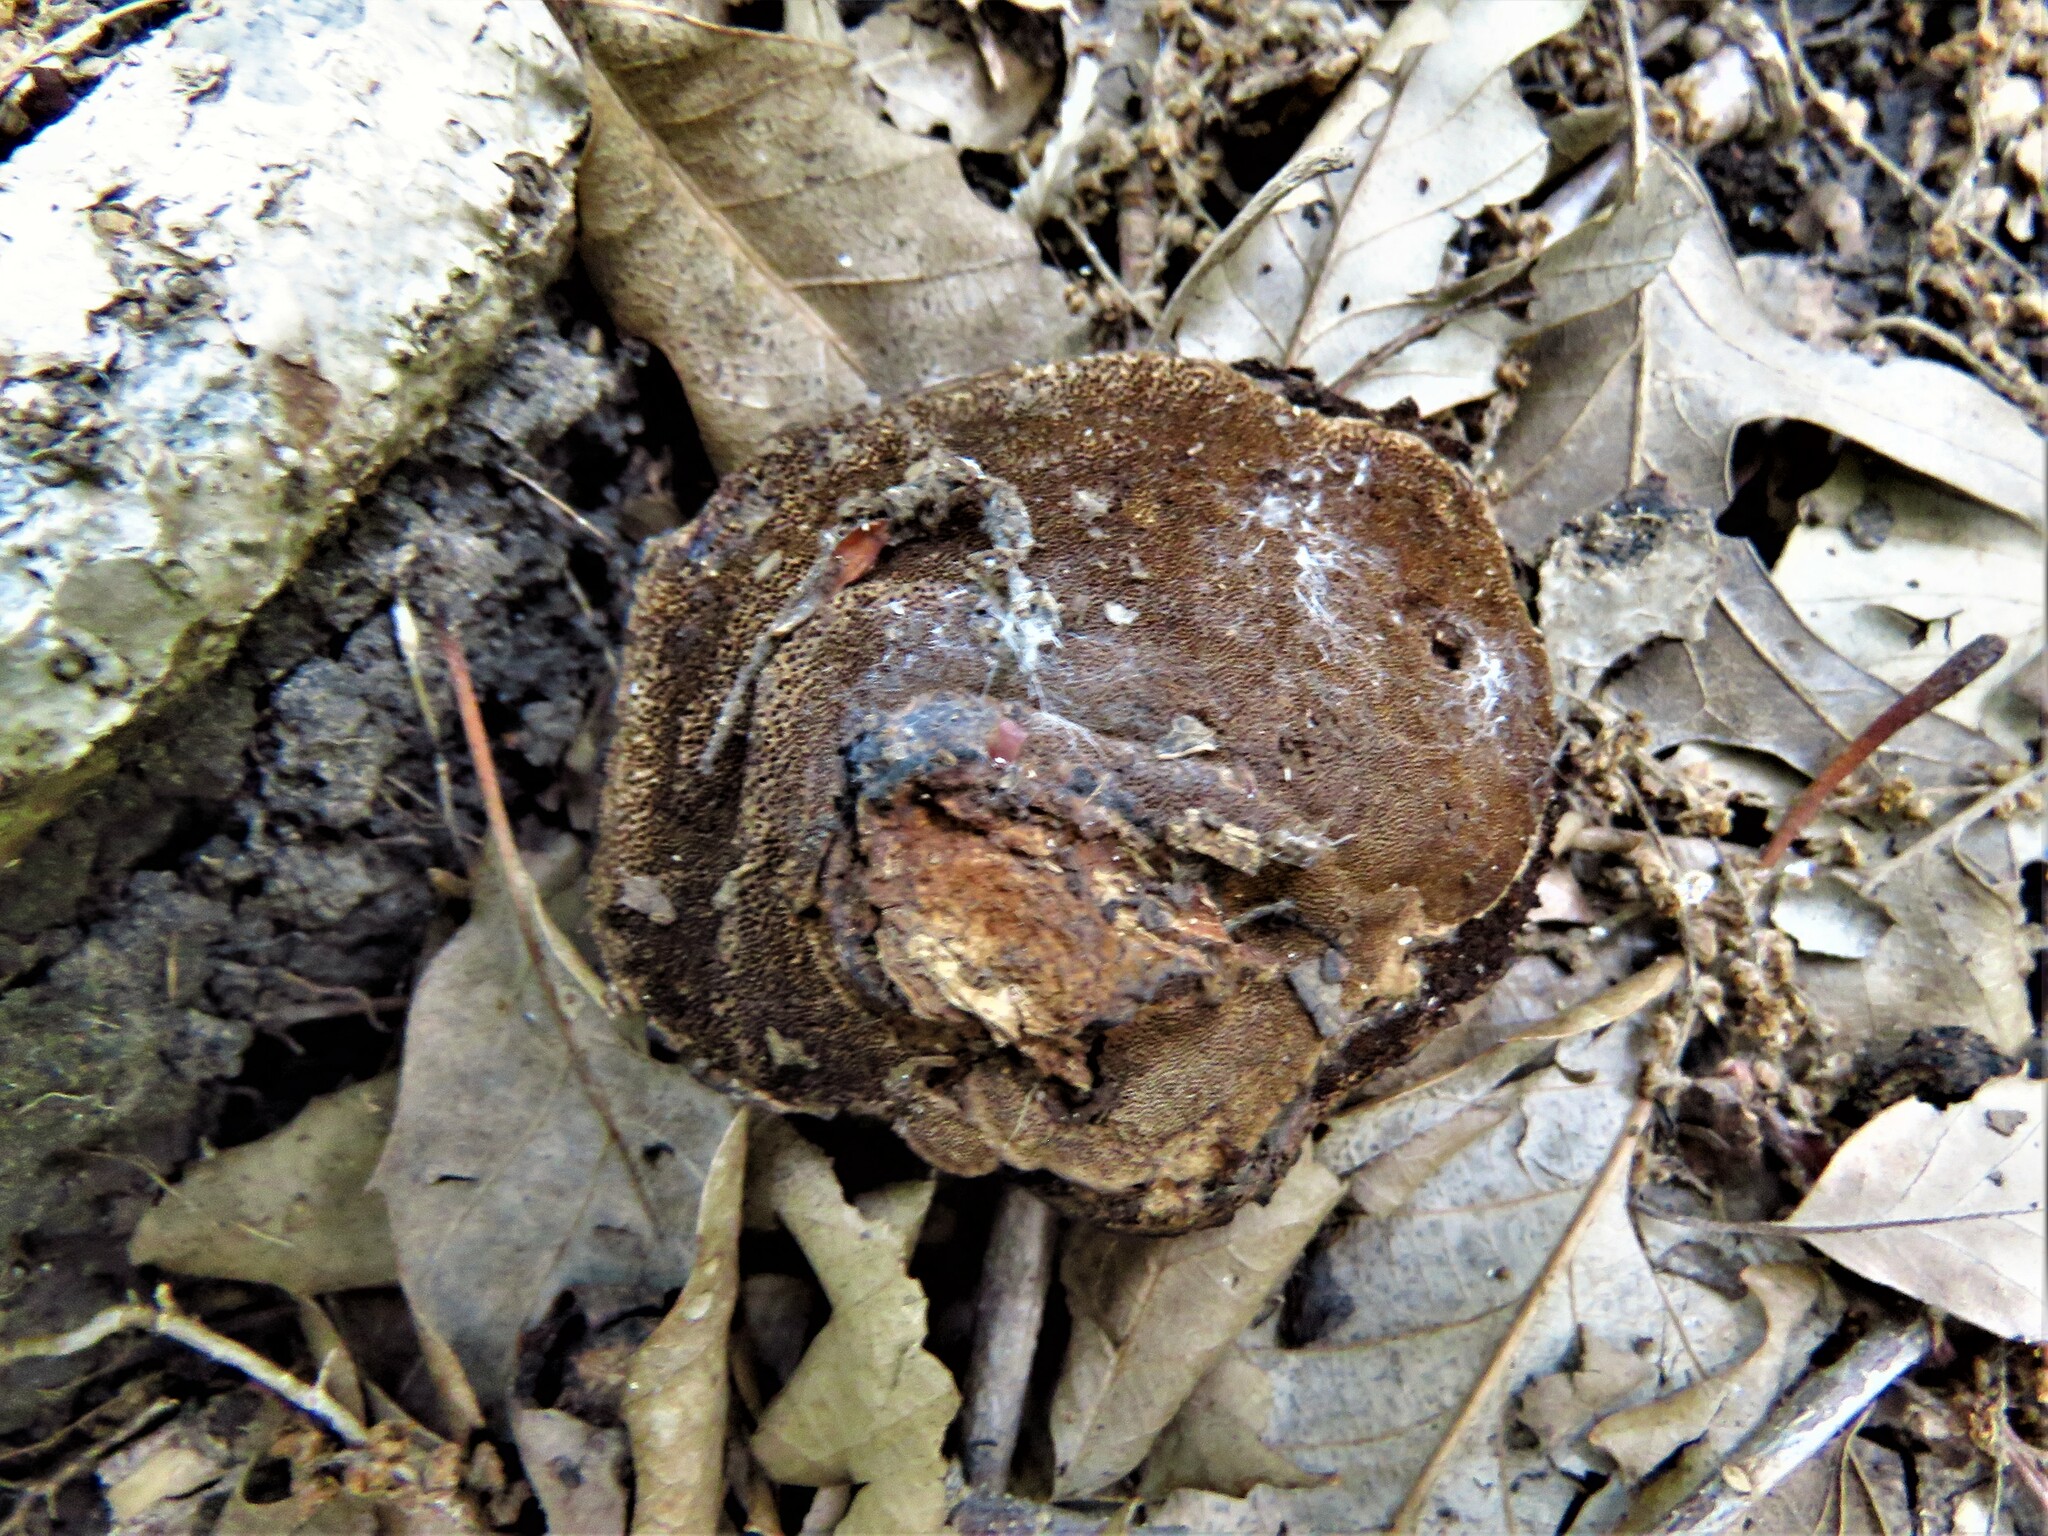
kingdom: Fungi
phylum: Basidiomycota
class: Agaricomycetes
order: Polyporales
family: Cerrenaceae
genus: Cerrena
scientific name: Cerrena hydnoides
